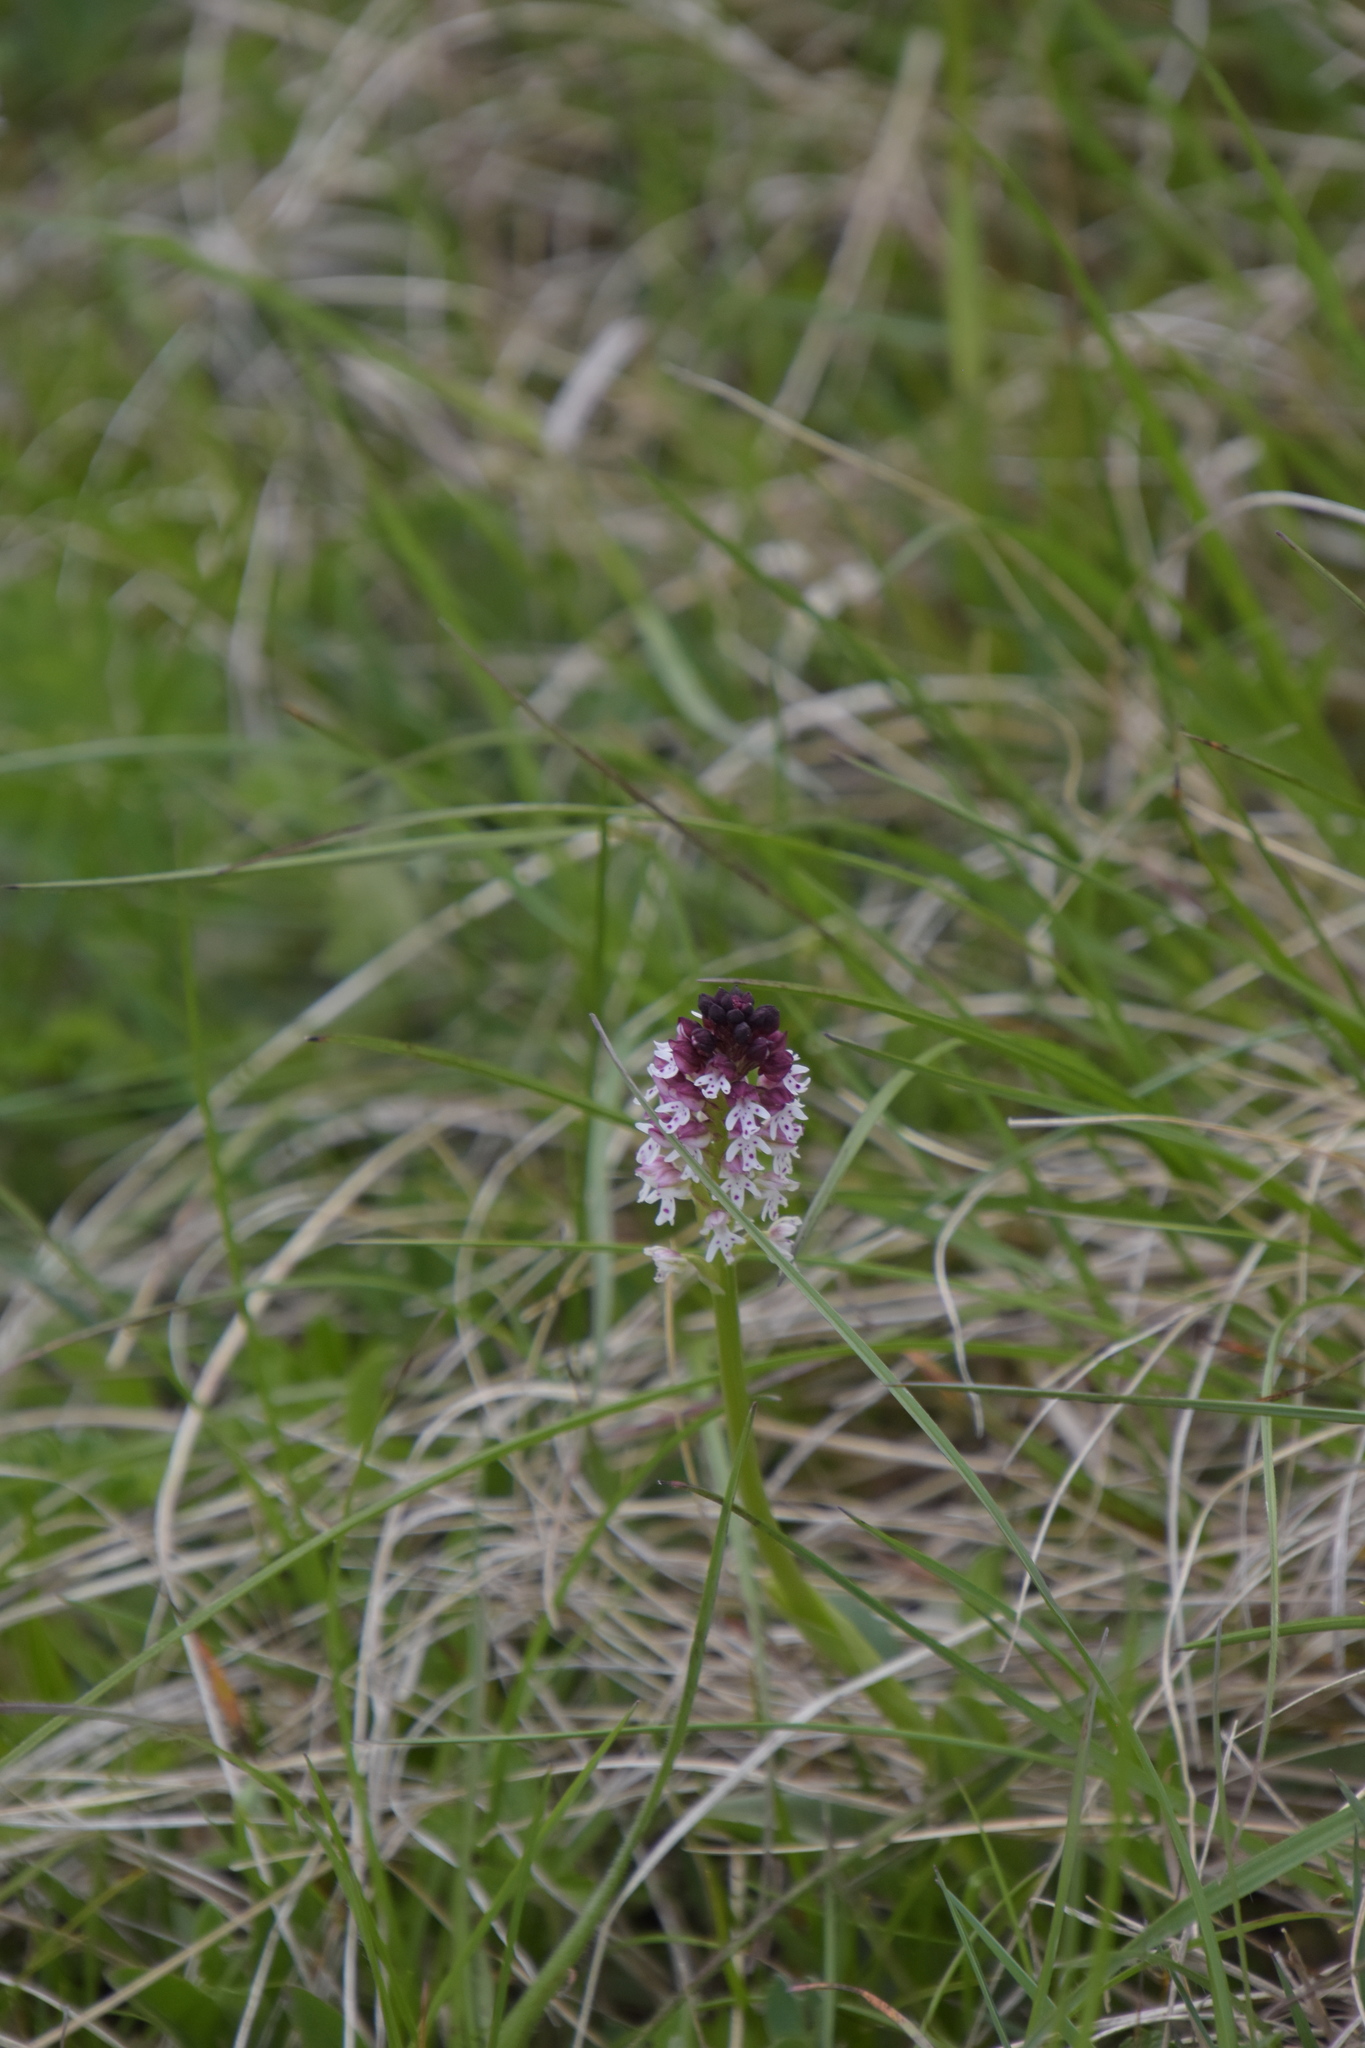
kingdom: Plantae
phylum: Tracheophyta
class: Liliopsida
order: Asparagales
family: Orchidaceae
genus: Neotinea
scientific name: Neotinea ustulata
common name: Burnt orchid
